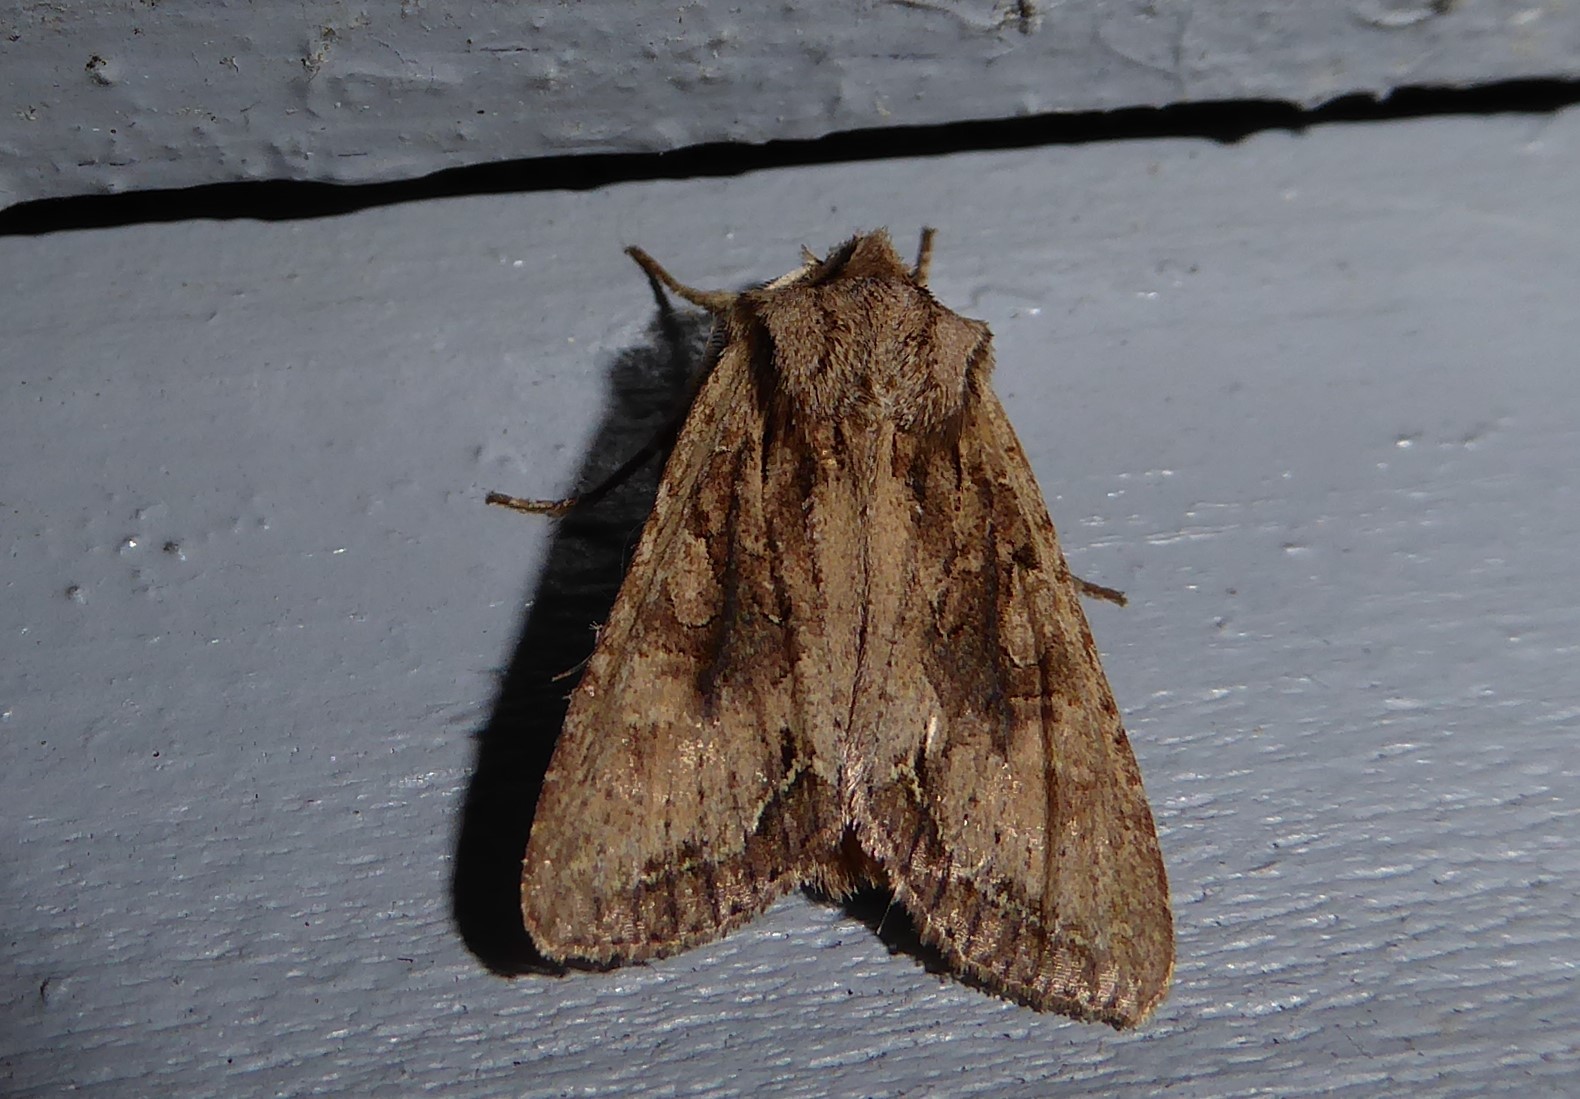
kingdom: Animalia
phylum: Arthropoda
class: Insecta
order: Lepidoptera
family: Noctuidae
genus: Ichneutica
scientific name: Ichneutica mutans
